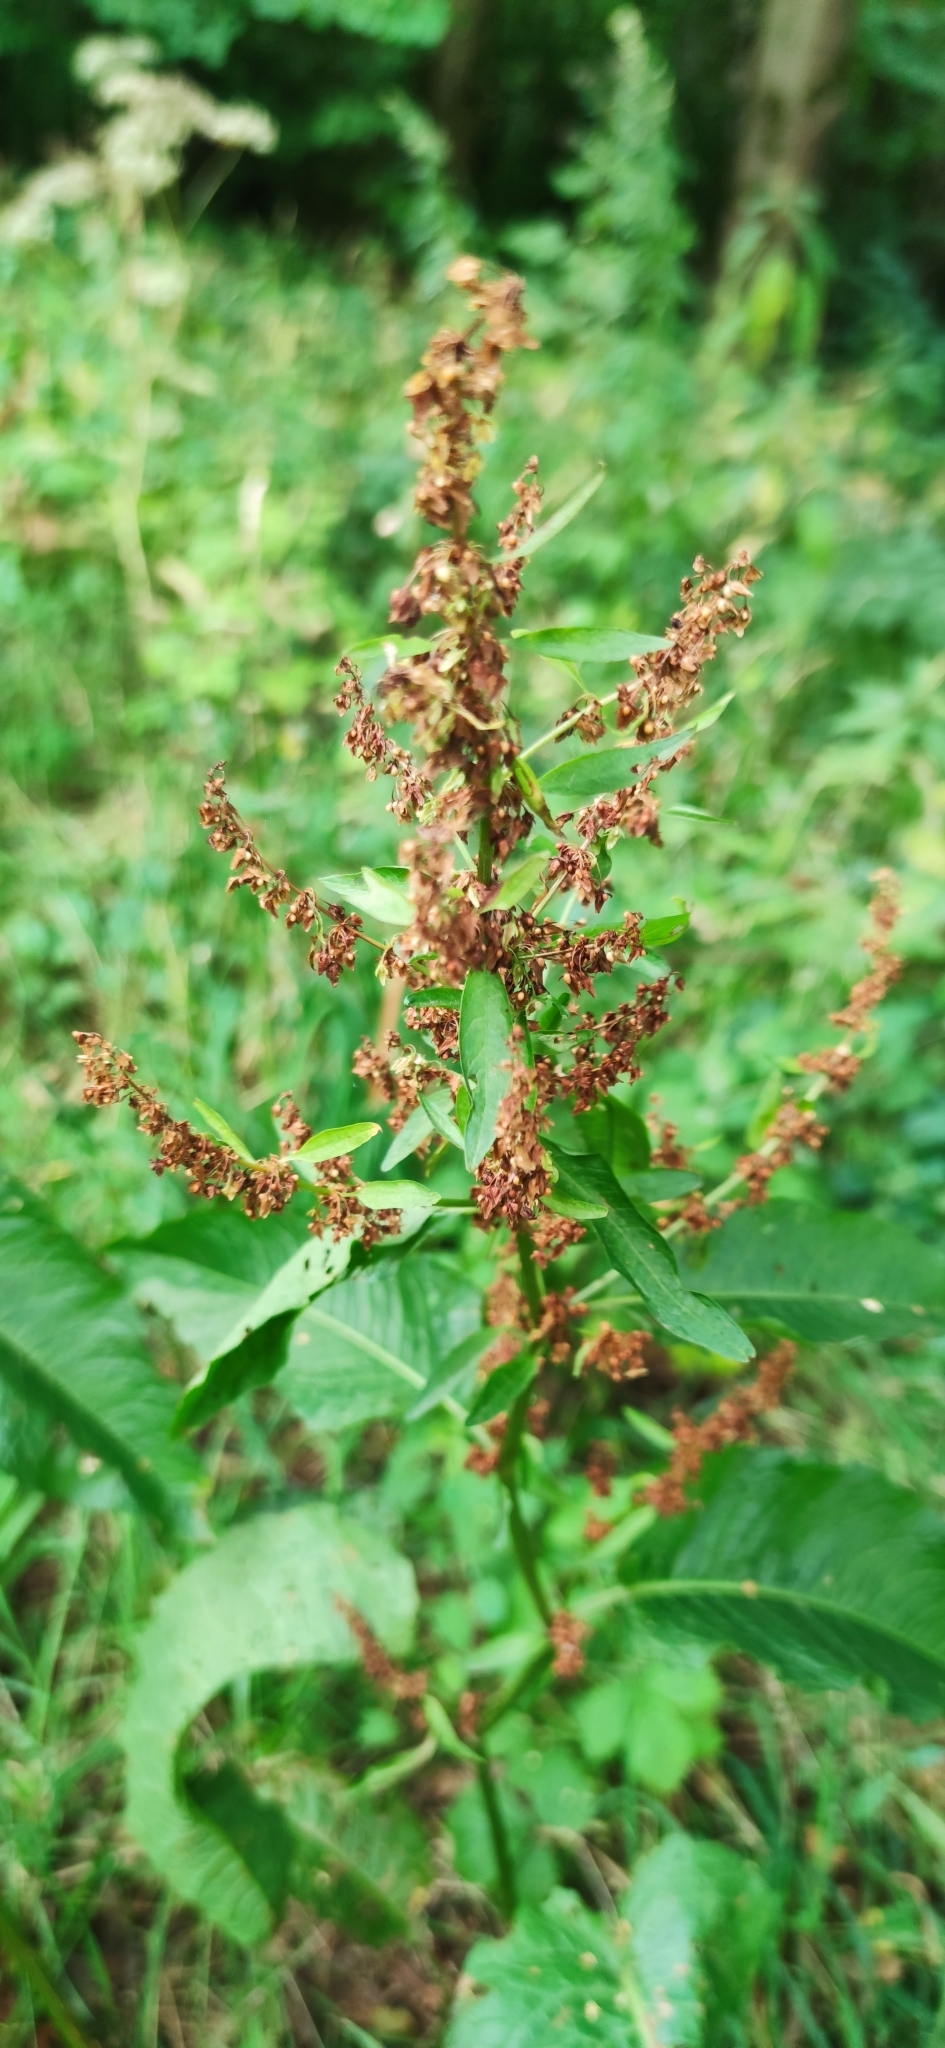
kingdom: Plantae
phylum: Tracheophyta
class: Magnoliopsida
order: Caryophyllales
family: Polygonaceae
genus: Rumex
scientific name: Rumex obtusifolius
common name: Bitter dock
